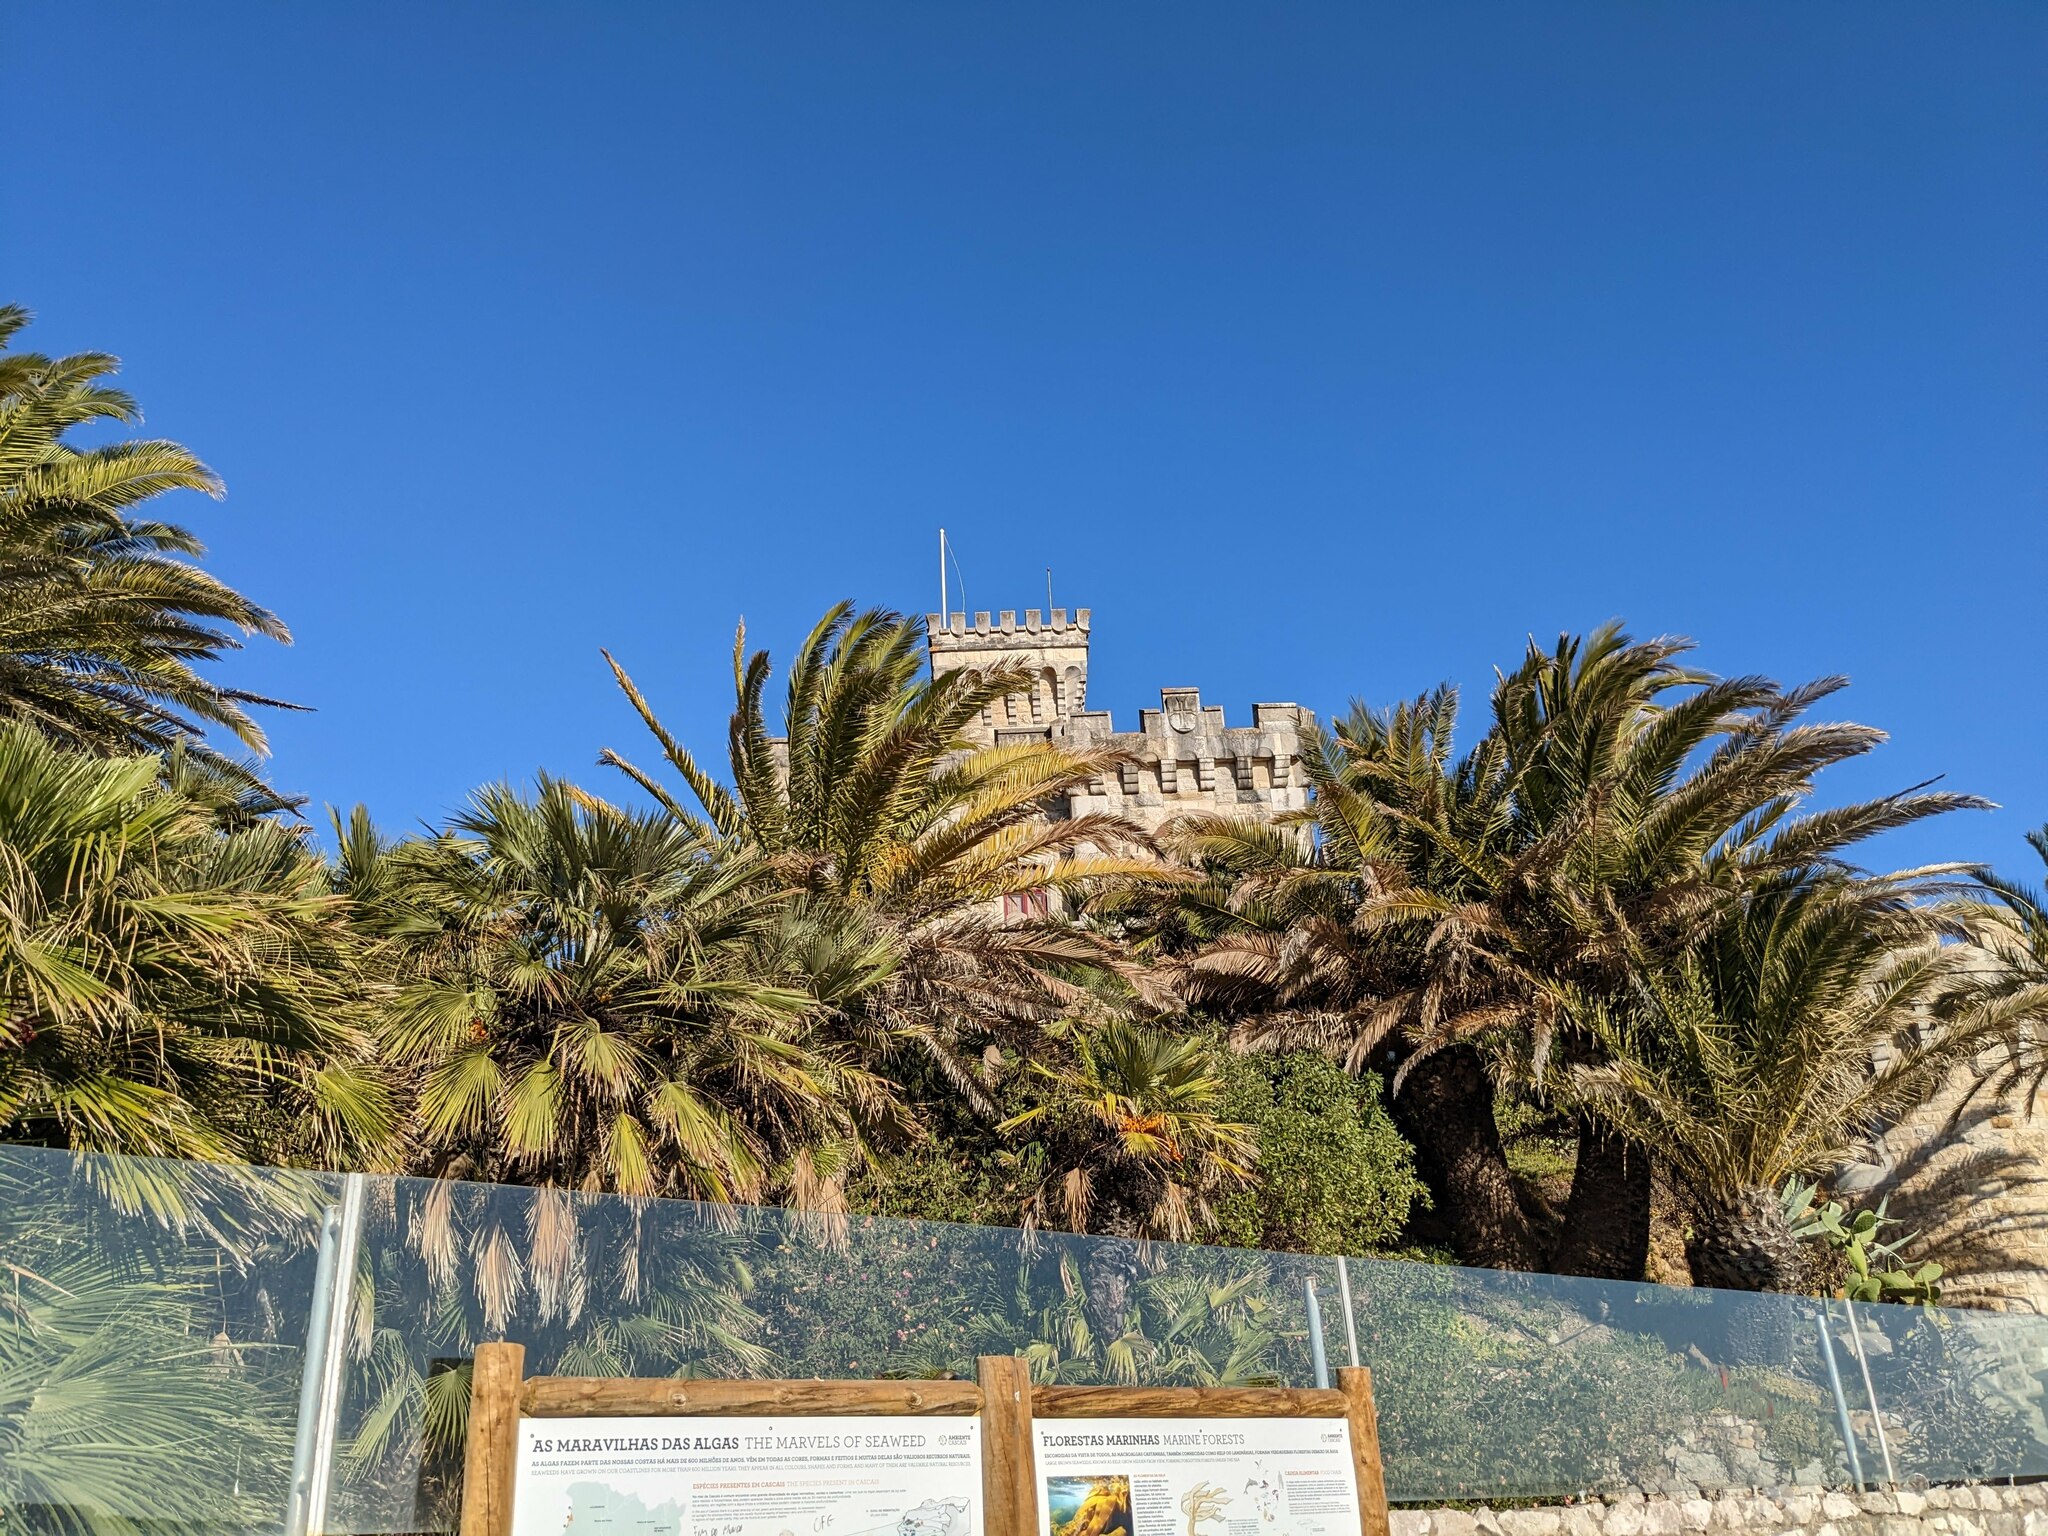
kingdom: Plantae
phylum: Tracheophyta
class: Liliopsida
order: Arecales
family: Arecaceae
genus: Phoenix
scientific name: Phoenix canariensis
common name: Canary island date palm
